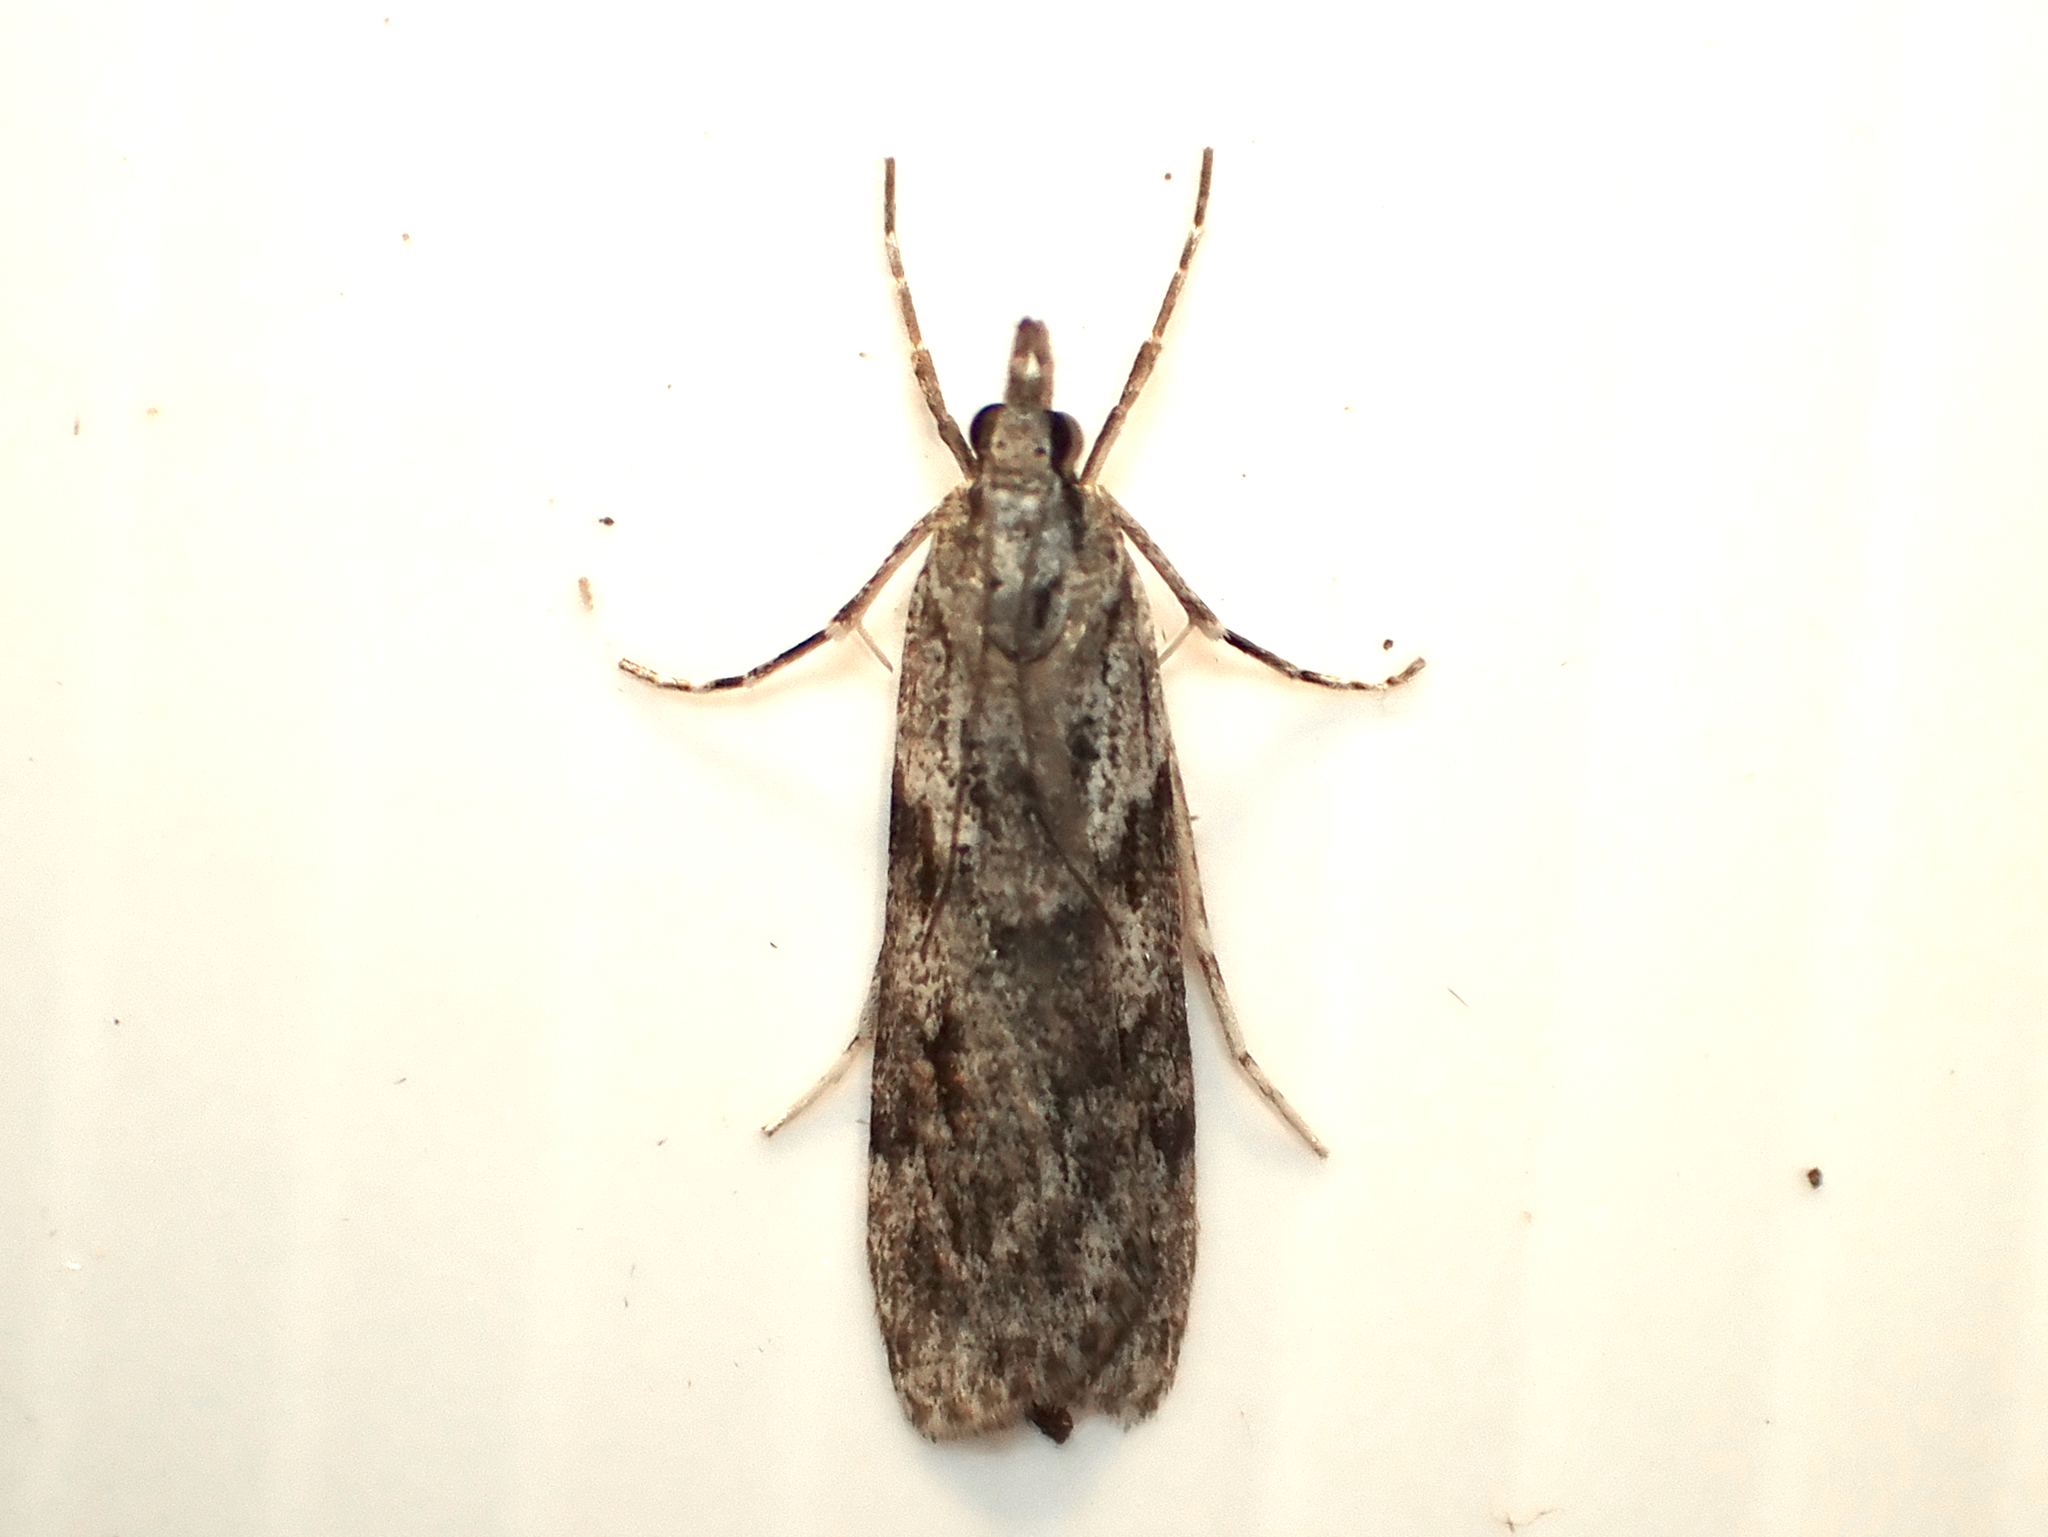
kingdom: Animalia
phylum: Arthropoda
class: Insecta
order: Lepidoptera
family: Crambidae
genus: Scoparia
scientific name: Scoparia halopis
